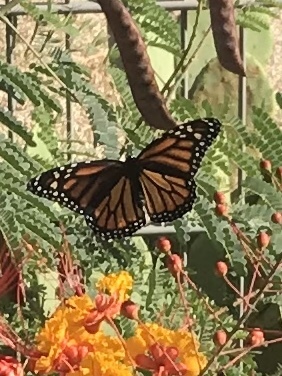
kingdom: Animalia
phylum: Arthropoda
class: Insecta
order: Lepidoptera
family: Nymphalidae
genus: Danaus
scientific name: Danaus plexippus
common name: Monarch
